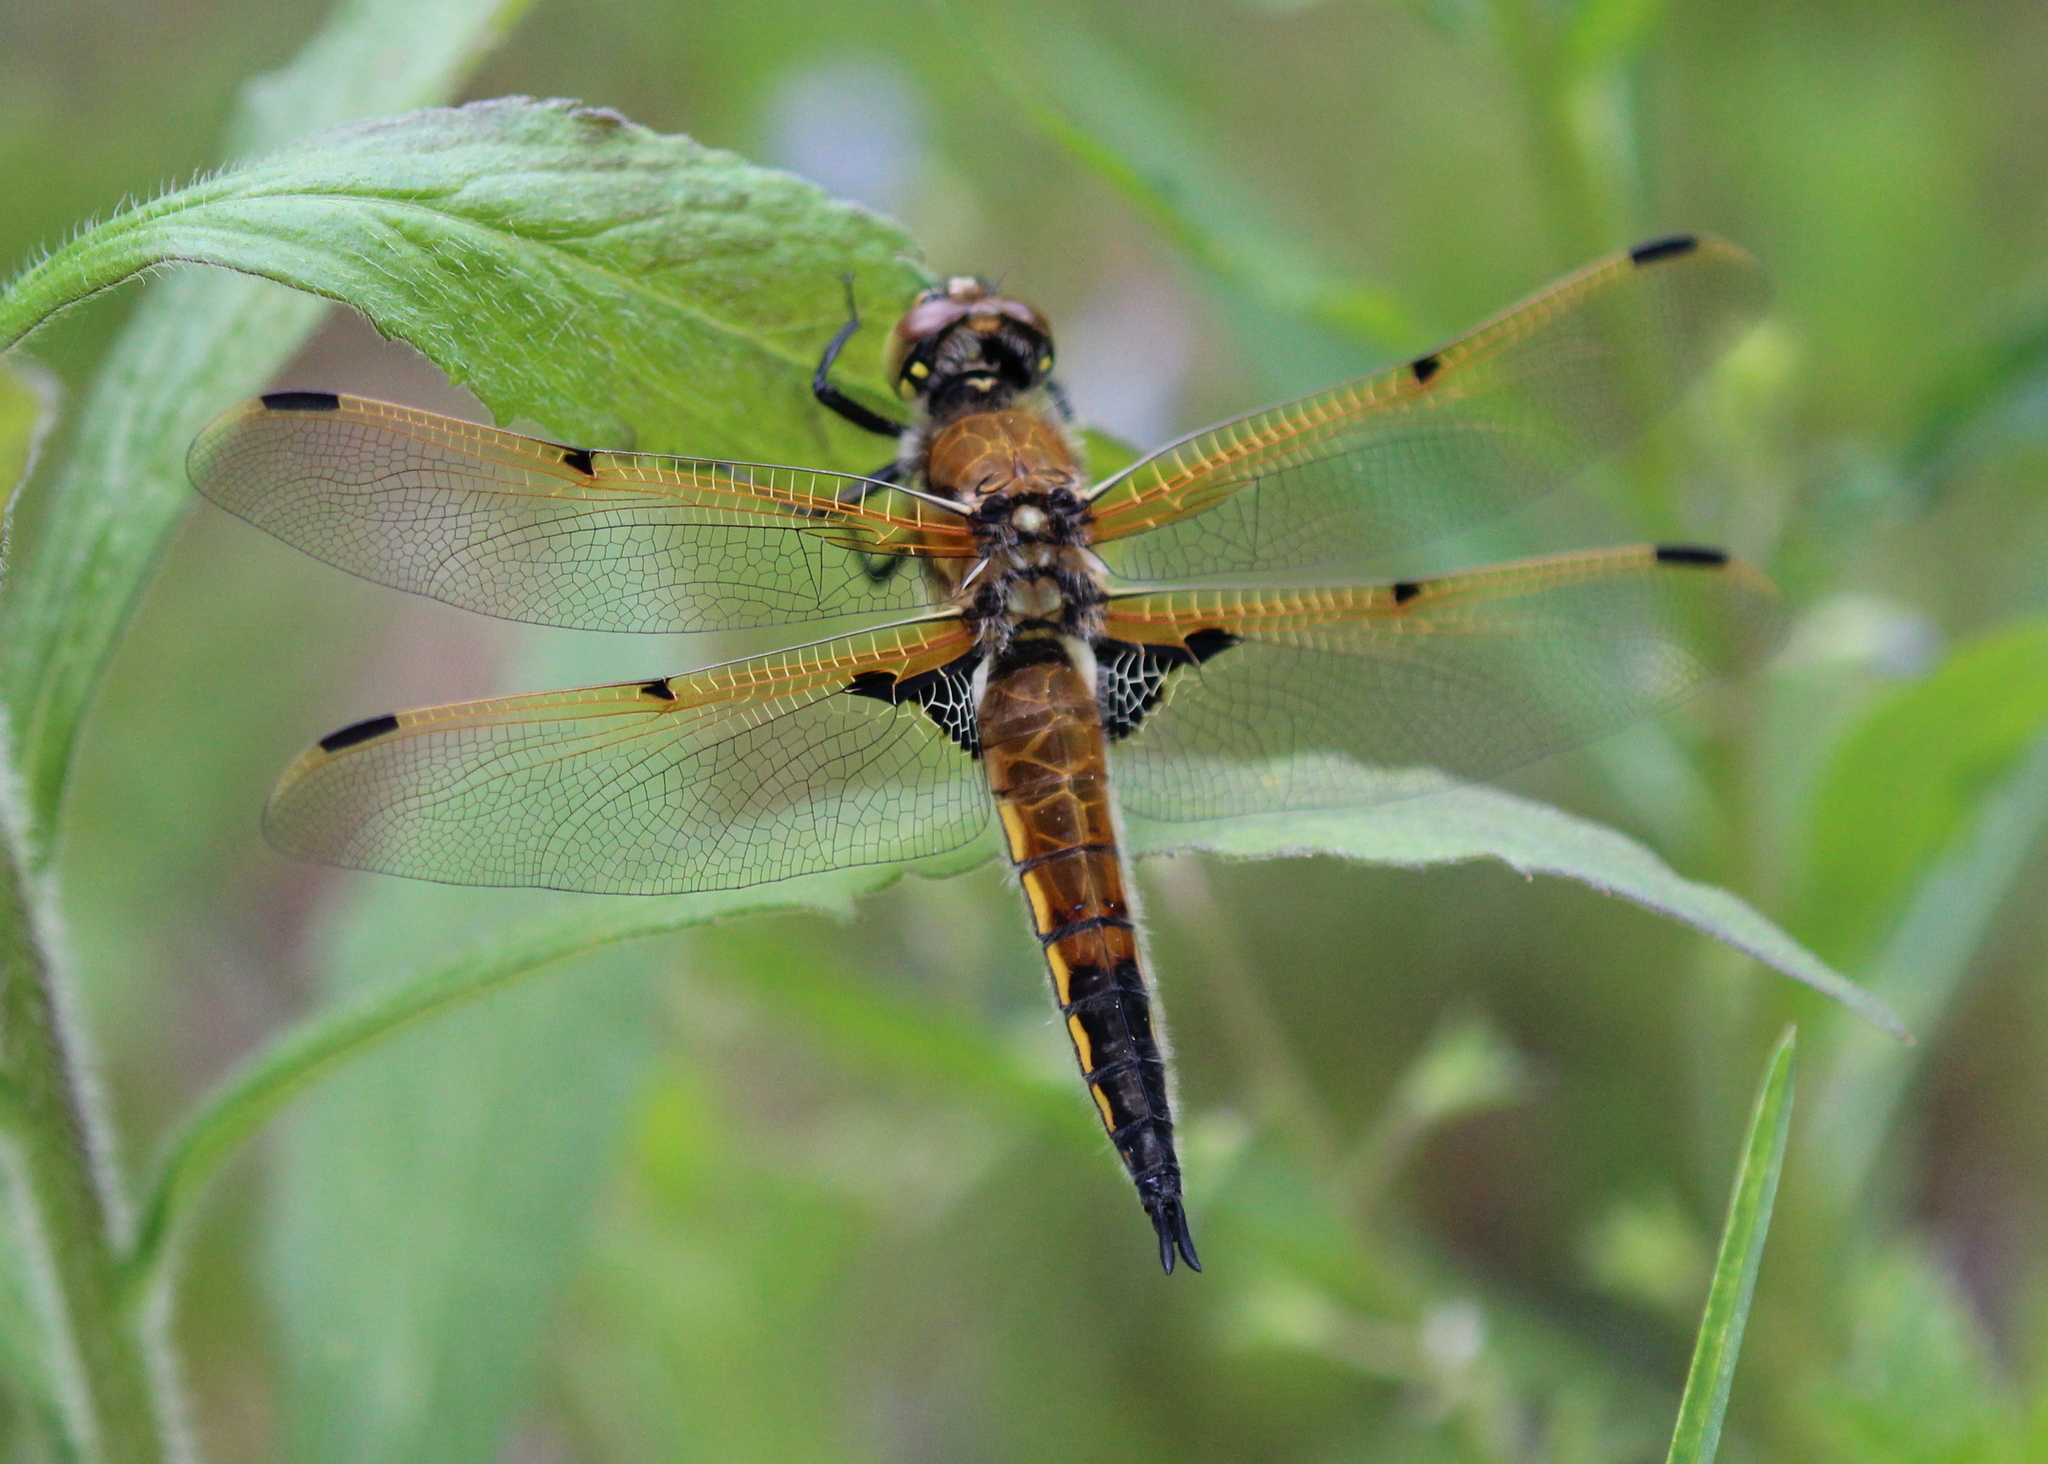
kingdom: Animalia
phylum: Arthropoda
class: Insecta
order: Odonata
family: Libellulidae
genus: Libellula
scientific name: Libellula quadrimaculata
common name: Four-spotted chaser
